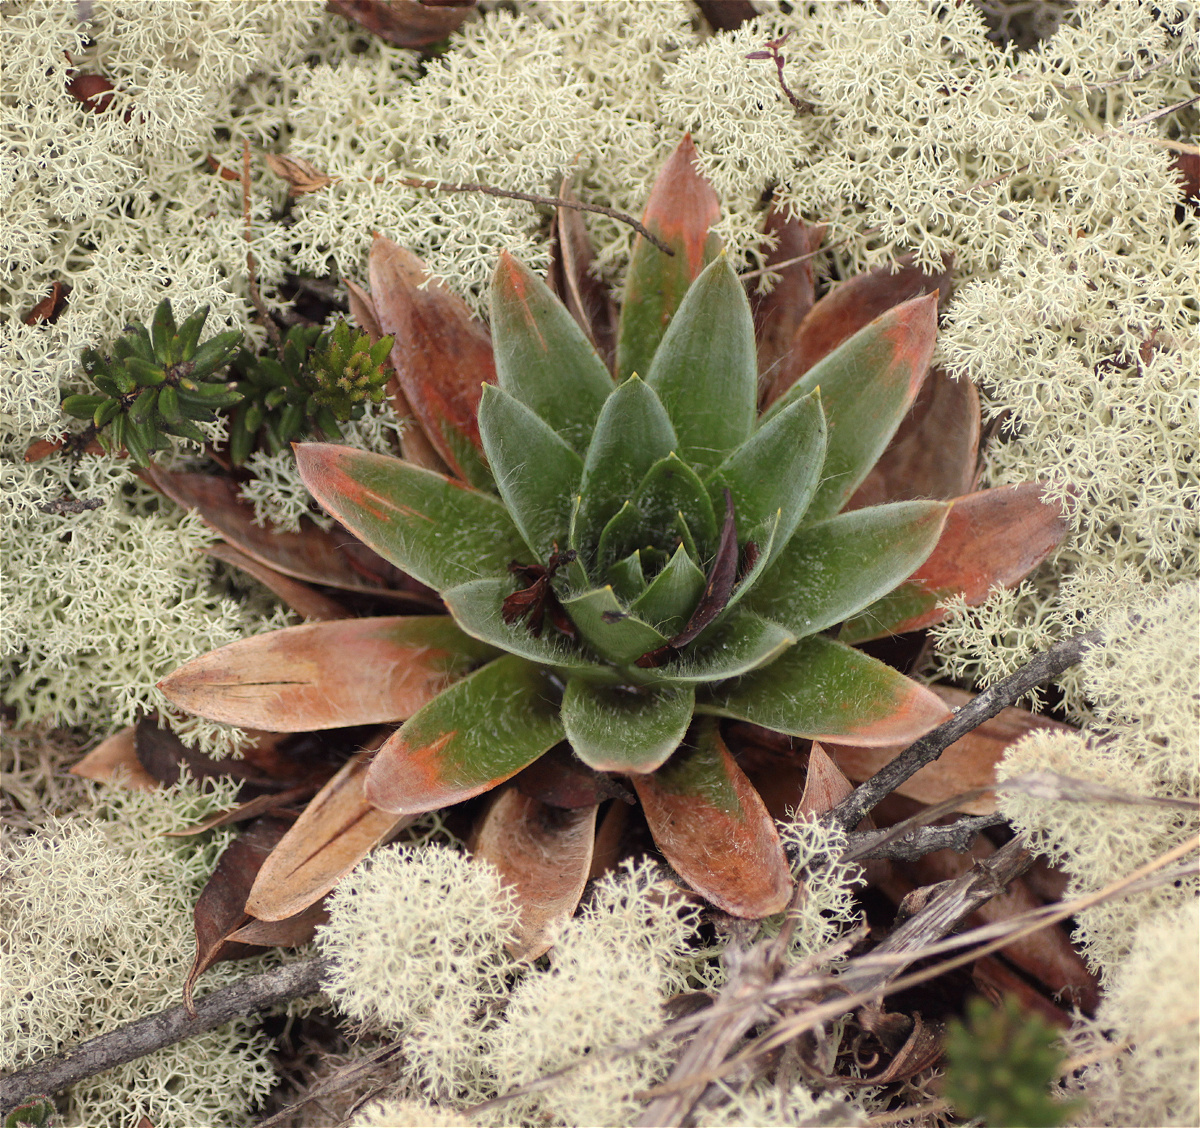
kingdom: Plantae
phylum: Tracheophyta
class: Liliopsida
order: Poales
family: Eriocaulaceae
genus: Paepalanthus
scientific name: Paepalanthus alpinus
